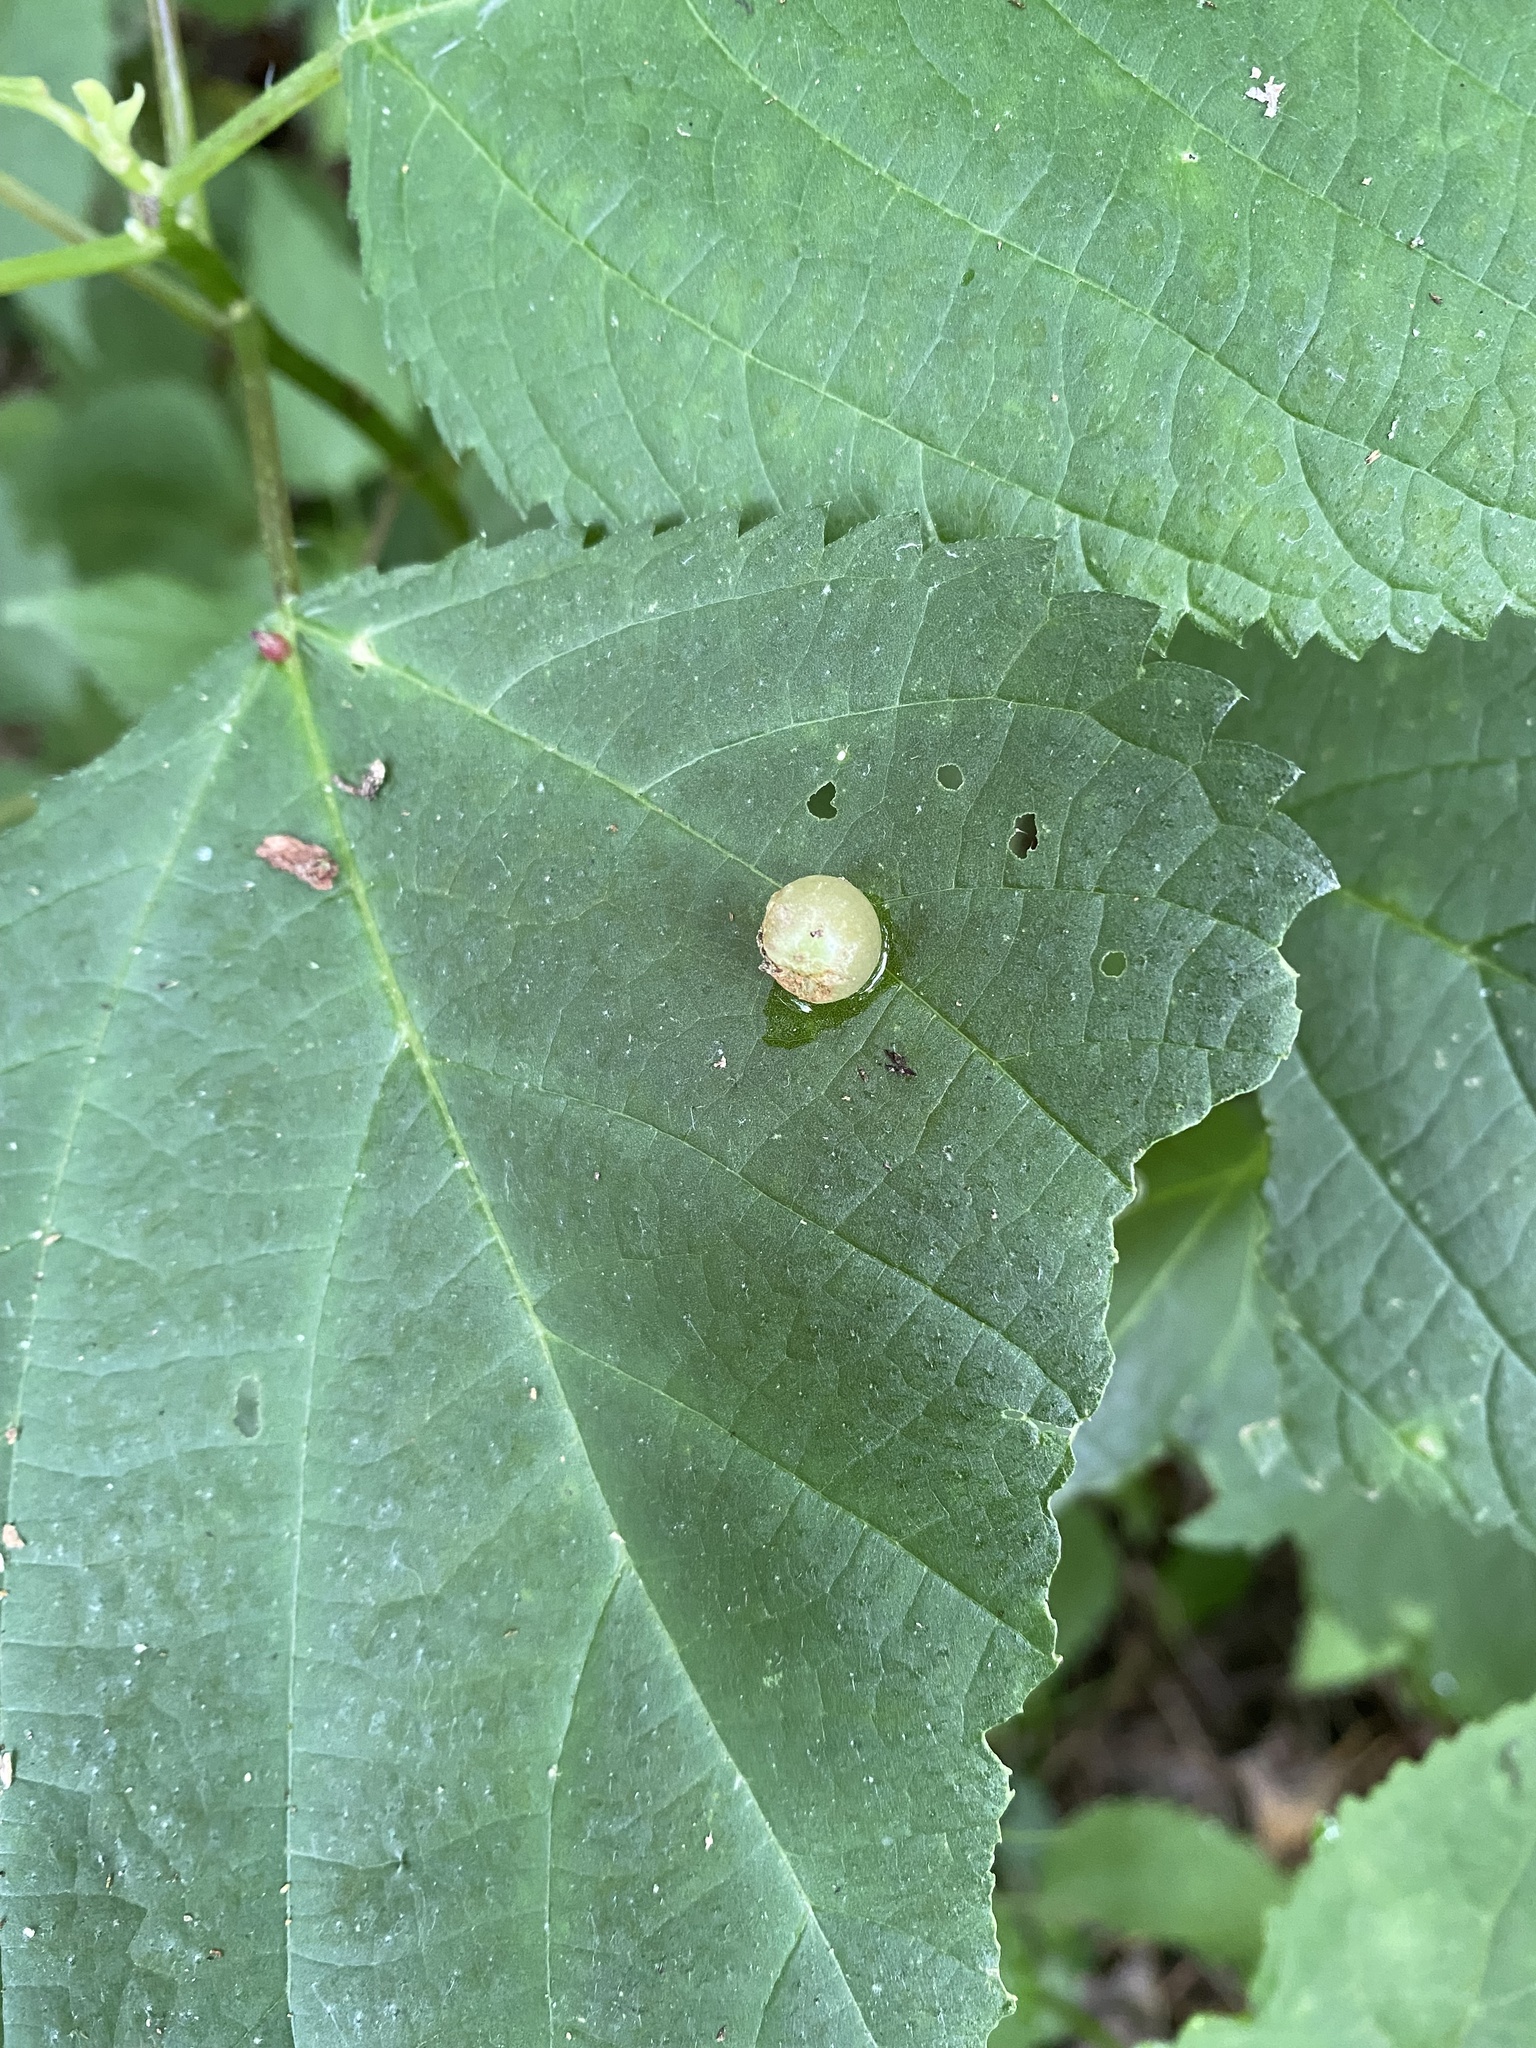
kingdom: Animalia
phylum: Arthropoda
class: Insecta
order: Diptera
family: Cecidomyiidae
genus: Dasineura
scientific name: Dasineura investita
